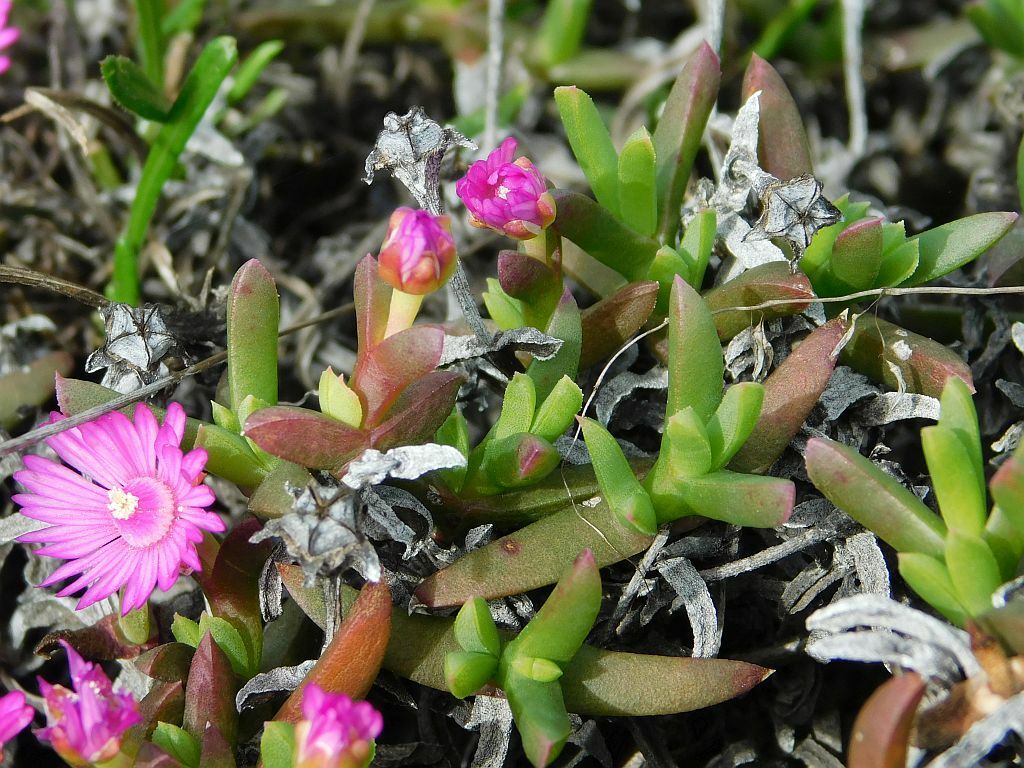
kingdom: Plantae
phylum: Tracheophyta
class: Magnoliopsida
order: Caryophyllales
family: Aizoaceae
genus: Ruschia
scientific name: Ruschia lineolata
